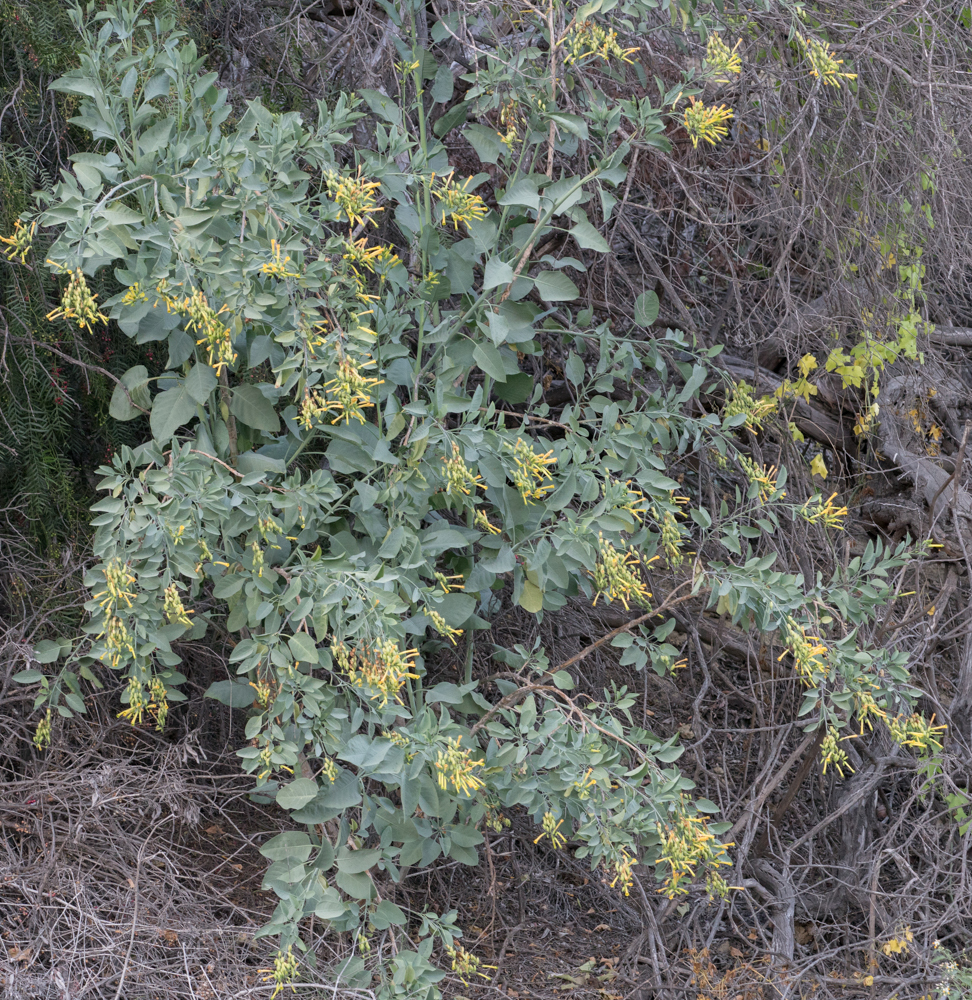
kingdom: Plantae
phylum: Tracheophyta
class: Magnoliopsida
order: Solanales
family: Solanaceae
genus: Nicotiana
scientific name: Nicotiana glauca
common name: Tree tobacco
